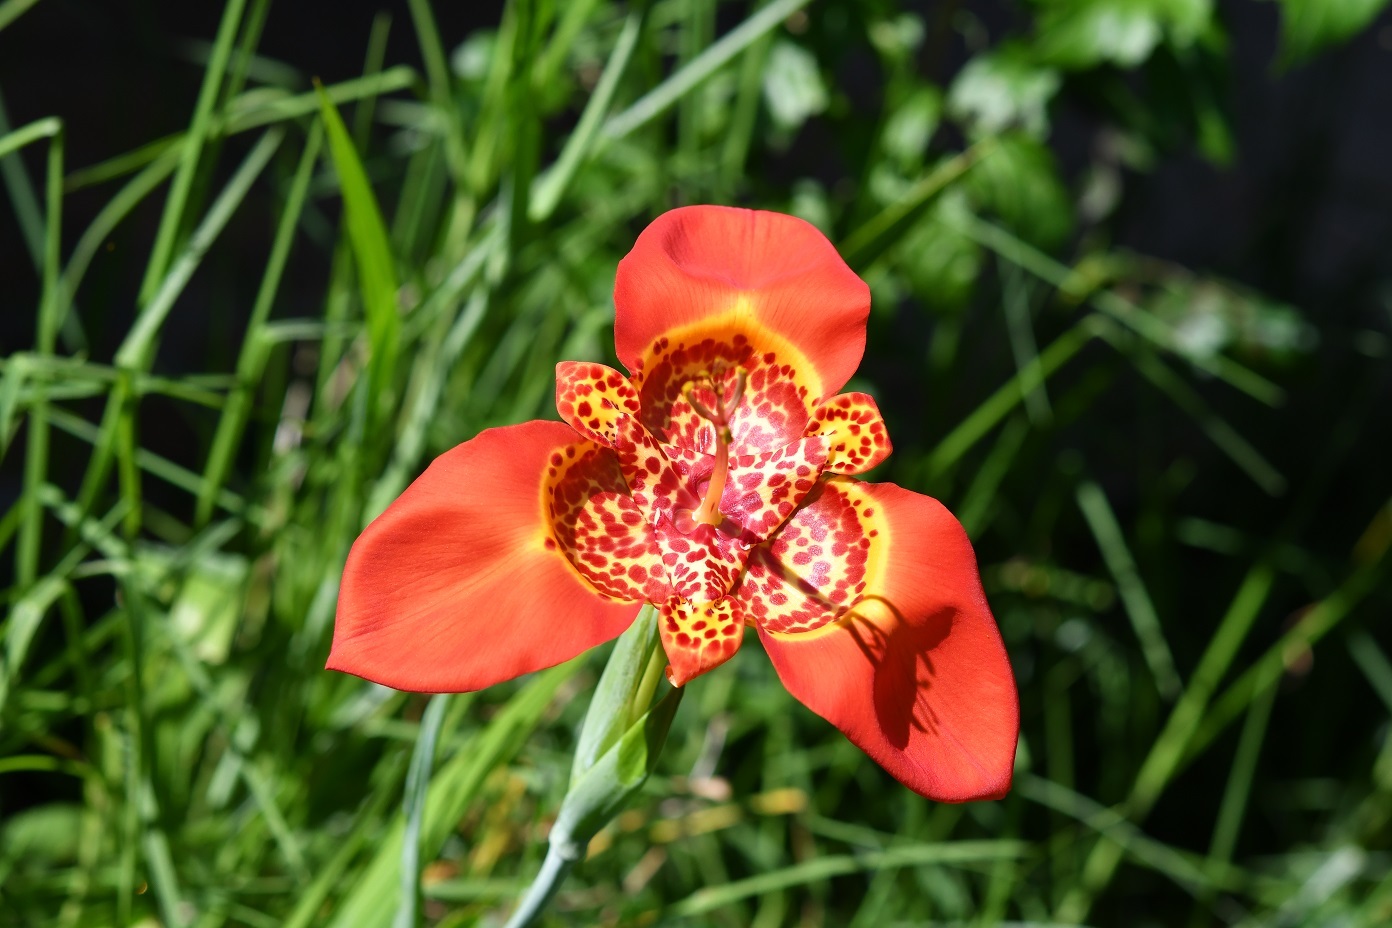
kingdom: Plantae
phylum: Tracheophyta
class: Liliopsida
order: Asparagales
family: Iridaceae
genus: Tigridia
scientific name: Tigridia pavonia
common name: Peacock-flower
